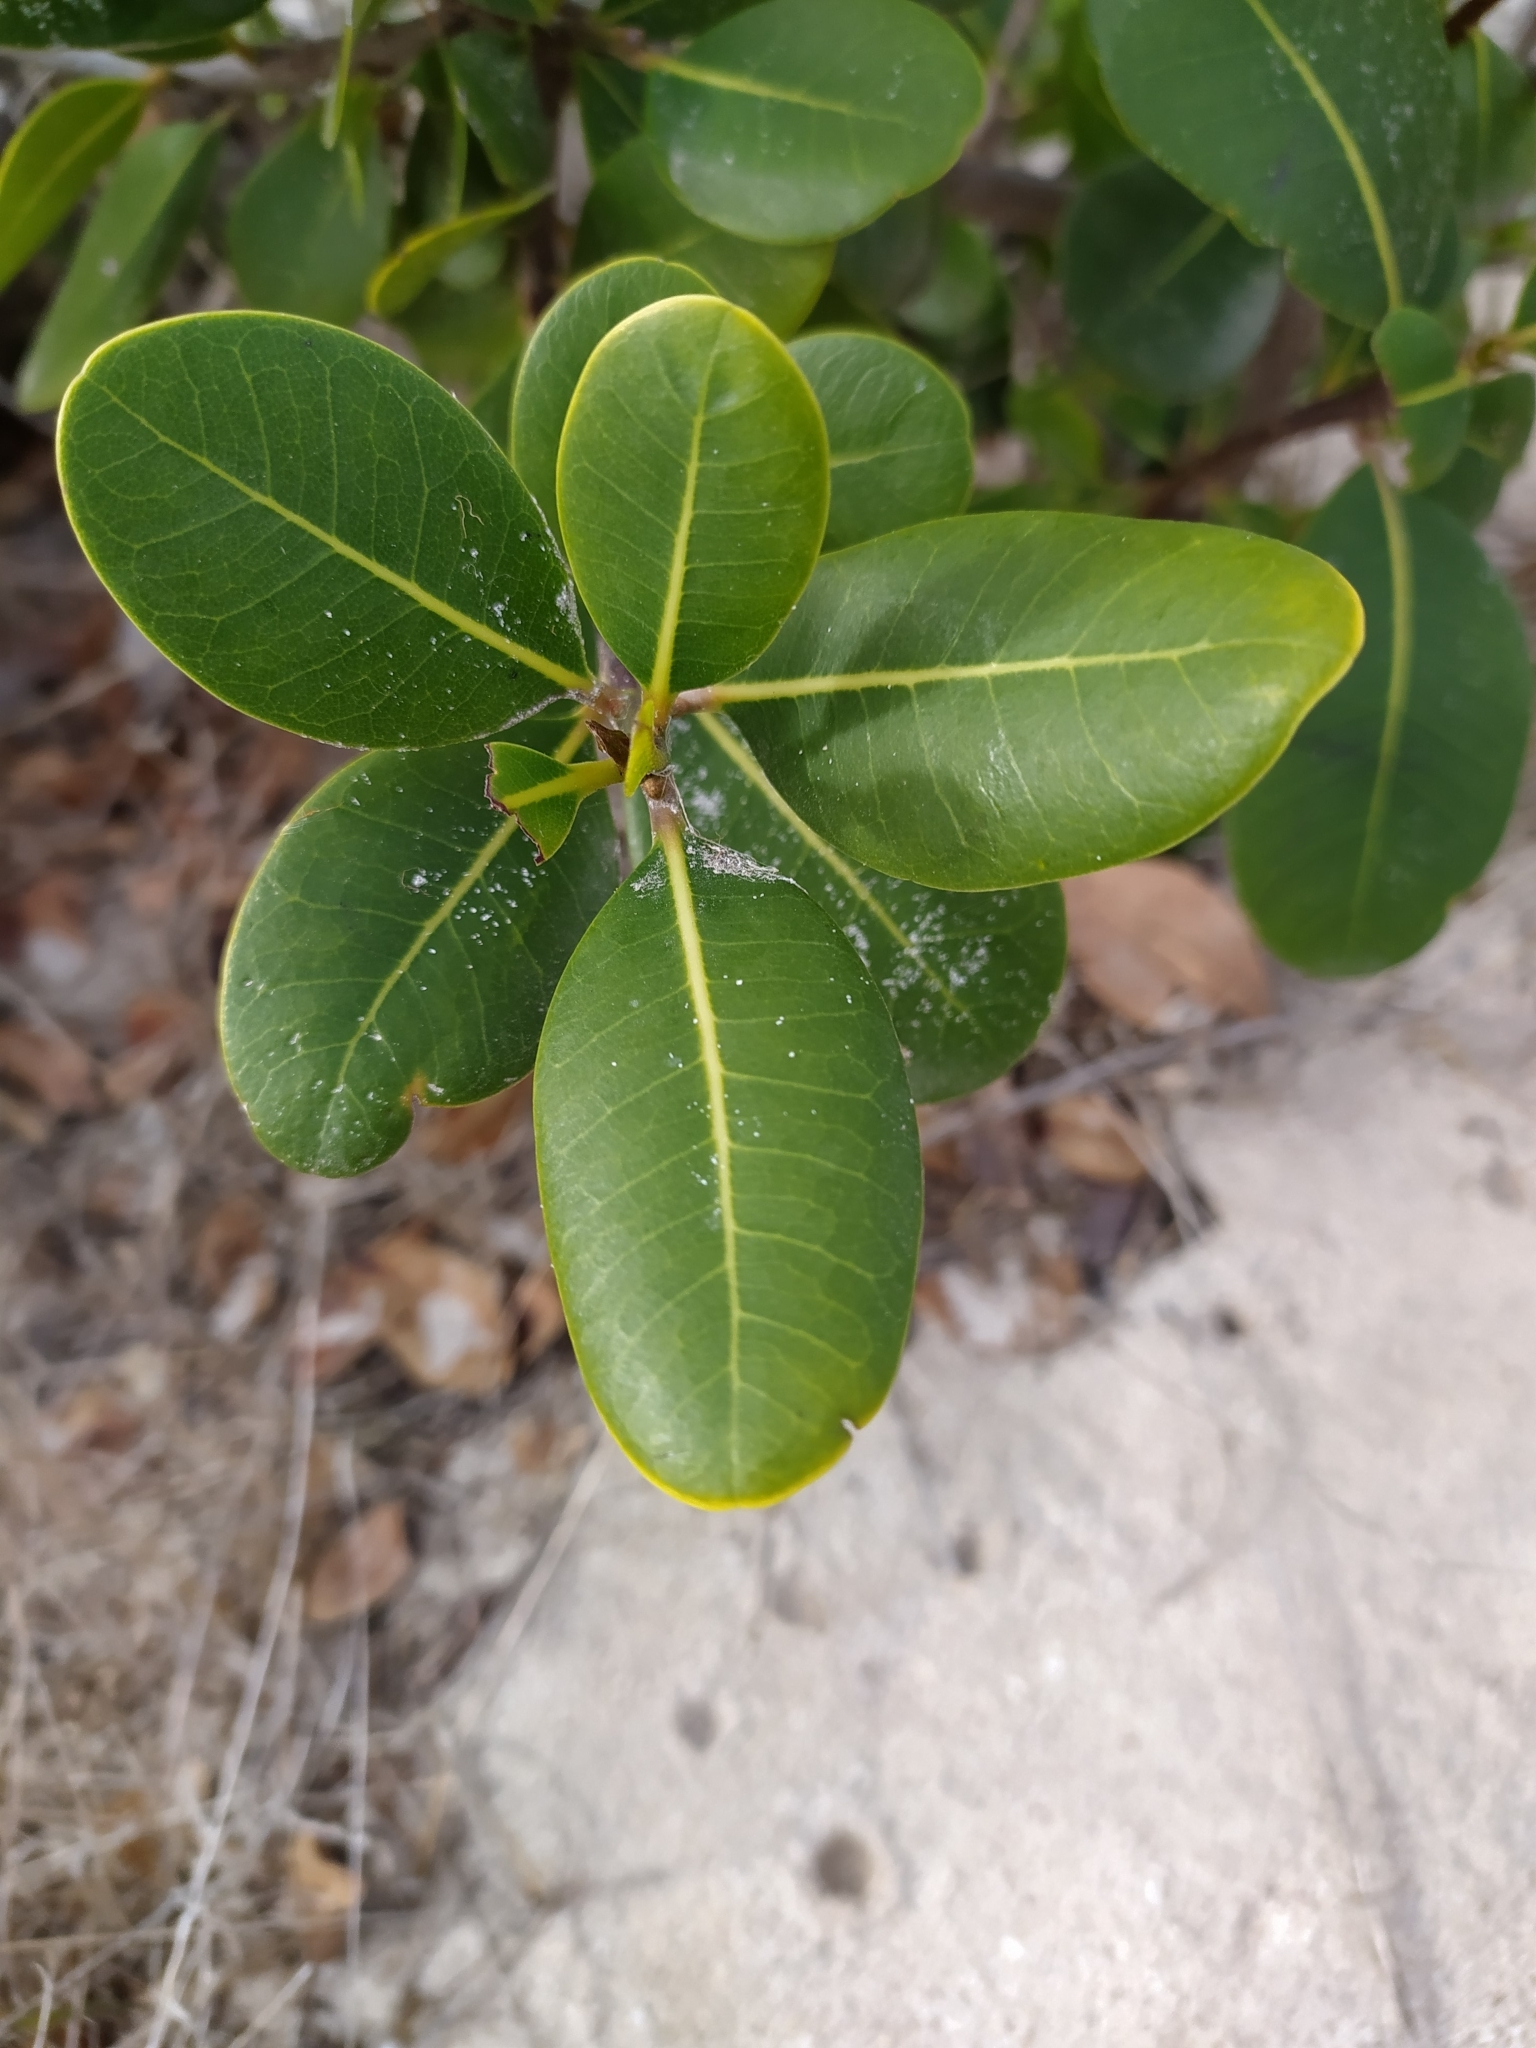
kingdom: Plantae
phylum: Tracheophyta
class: Magnoliopsida
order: Ericales
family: Sapotaceae
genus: Sideroxylon
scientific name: Sideroxylon inerme
